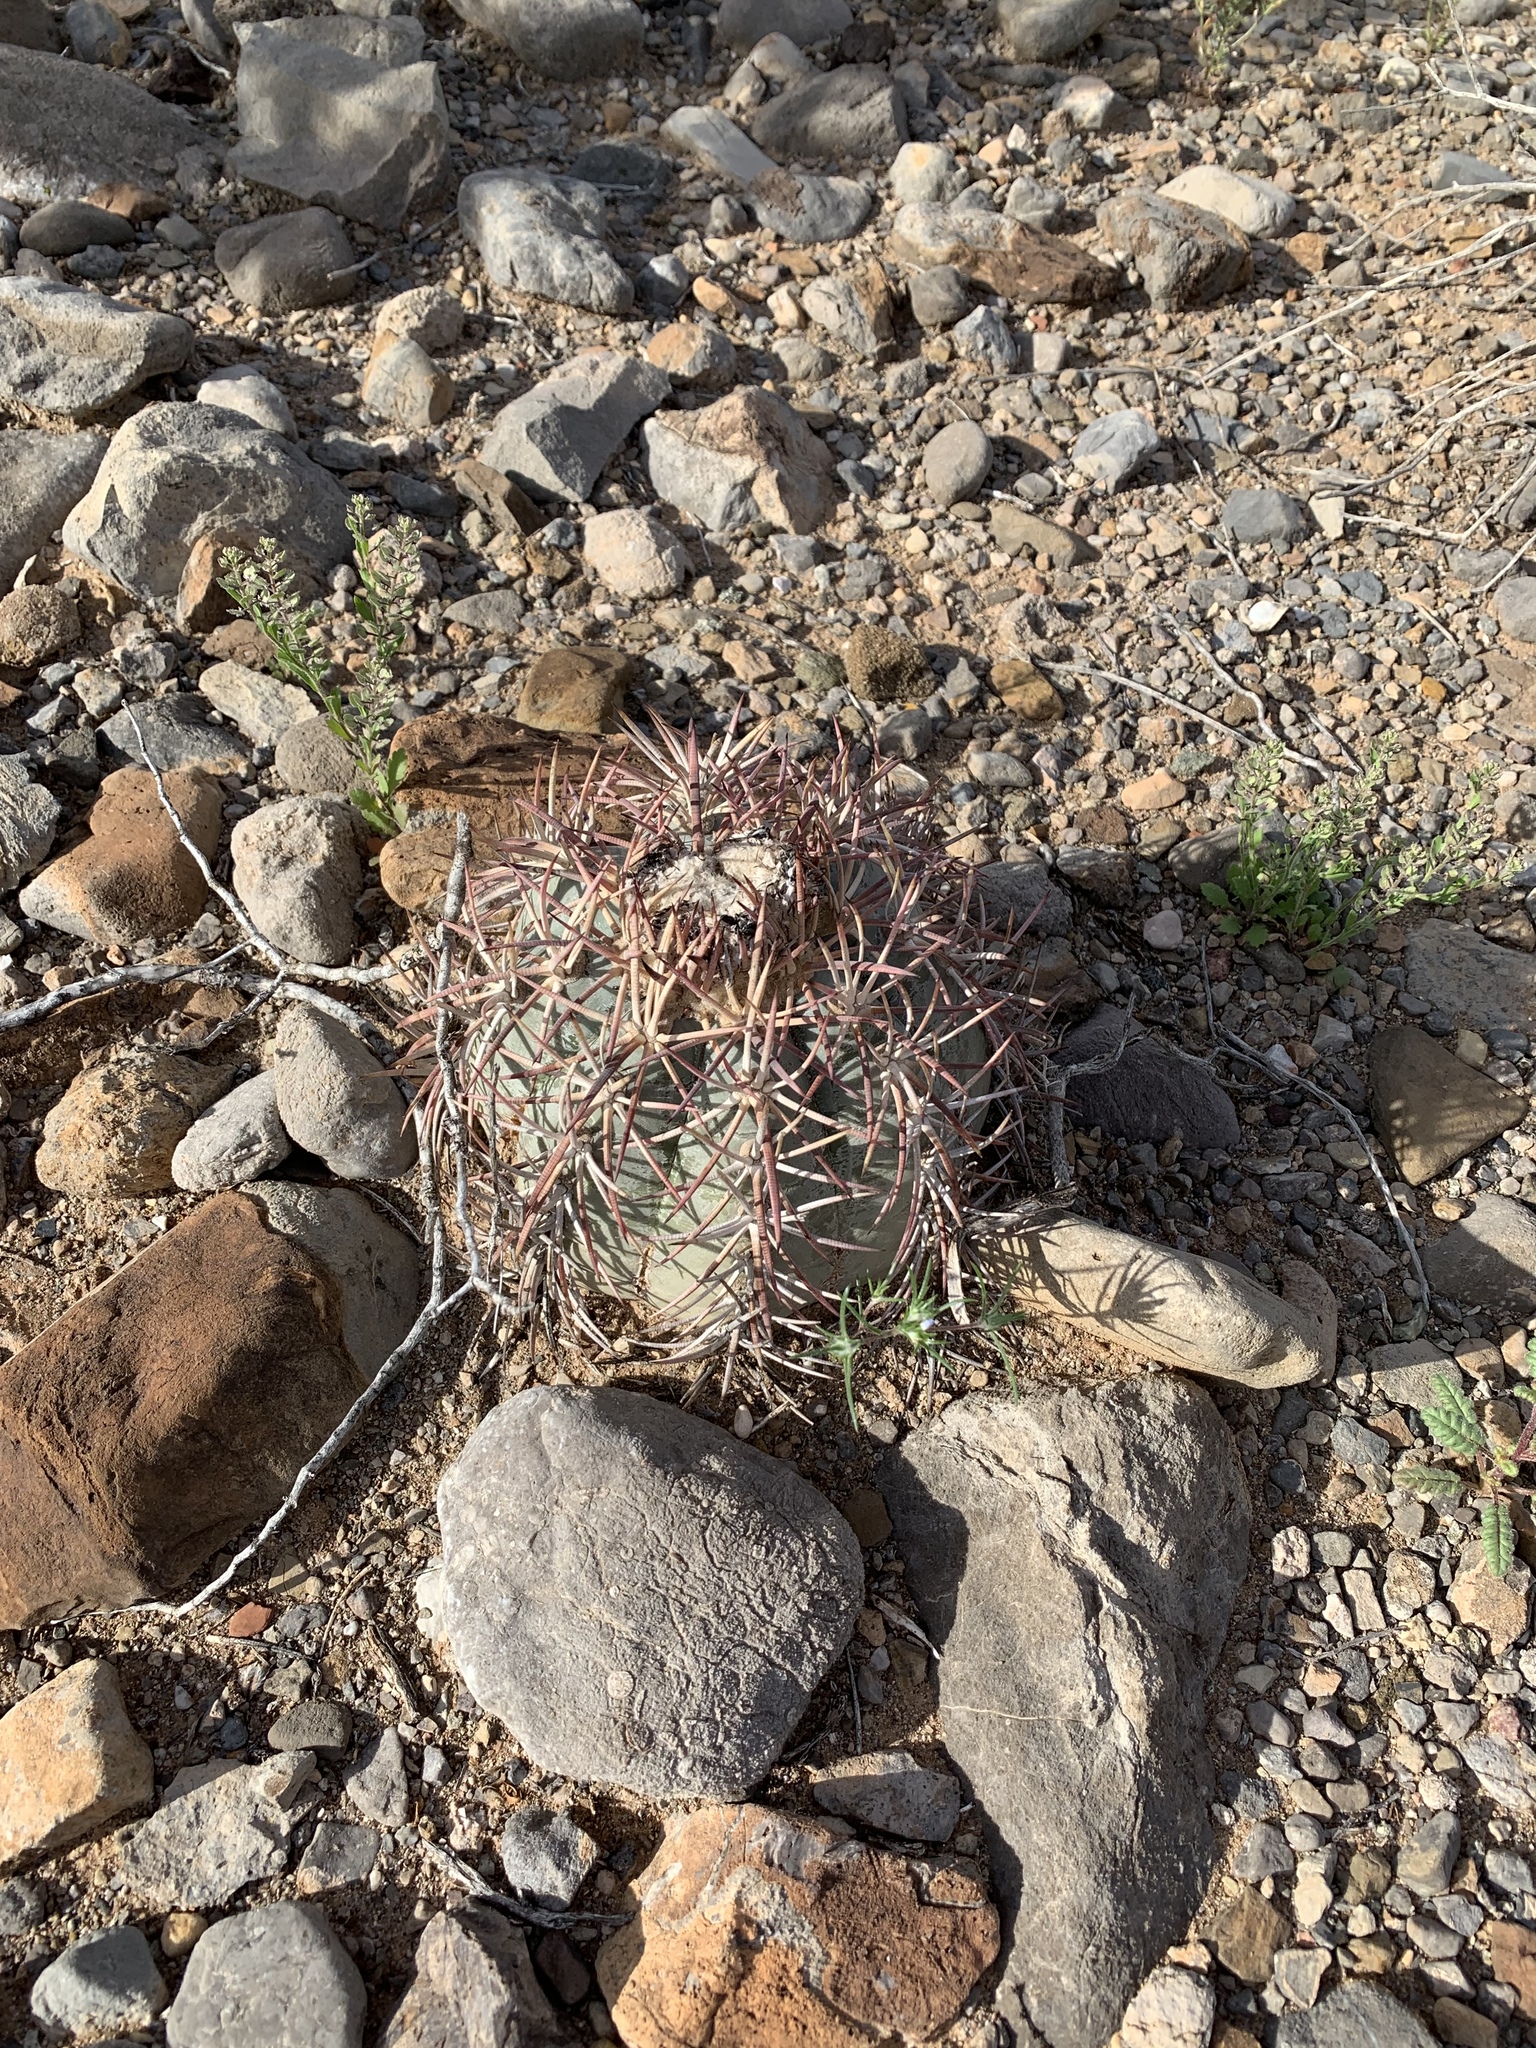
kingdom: Plantae
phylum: Tracheophyta
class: Magnoliopsida
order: Caryophyllales
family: Cactaceae
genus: Echinocactus
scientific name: Echinocactus horizonthalonius
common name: Devilshead
